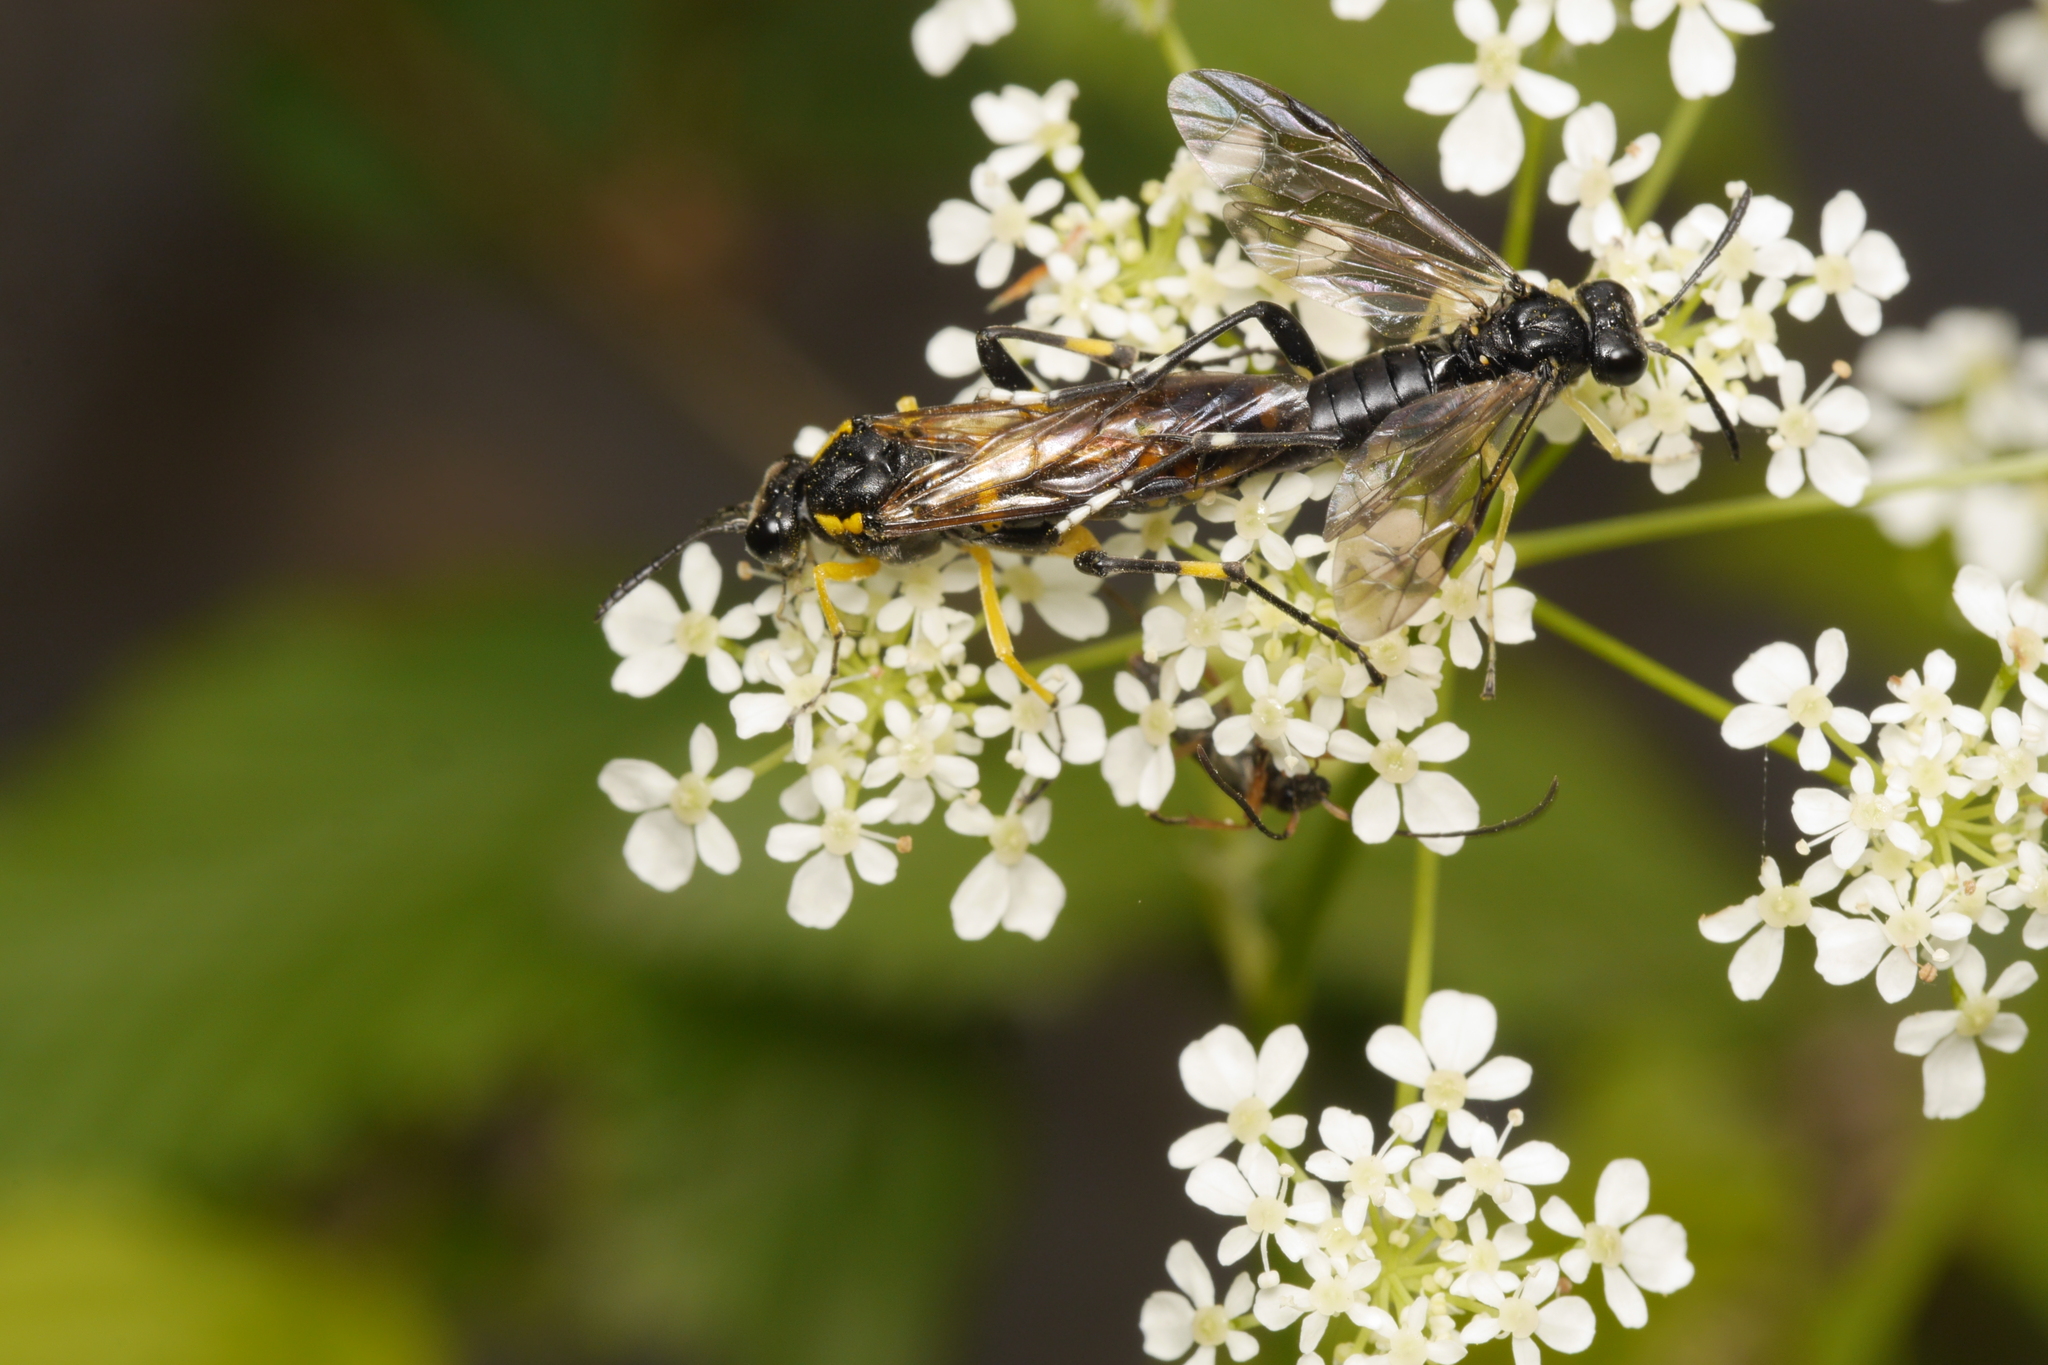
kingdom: Animalia
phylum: Arthropoda
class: Insecta
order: Hymenoptera
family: Tenthredinidae
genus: Macrophya
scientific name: Macrophya montana
